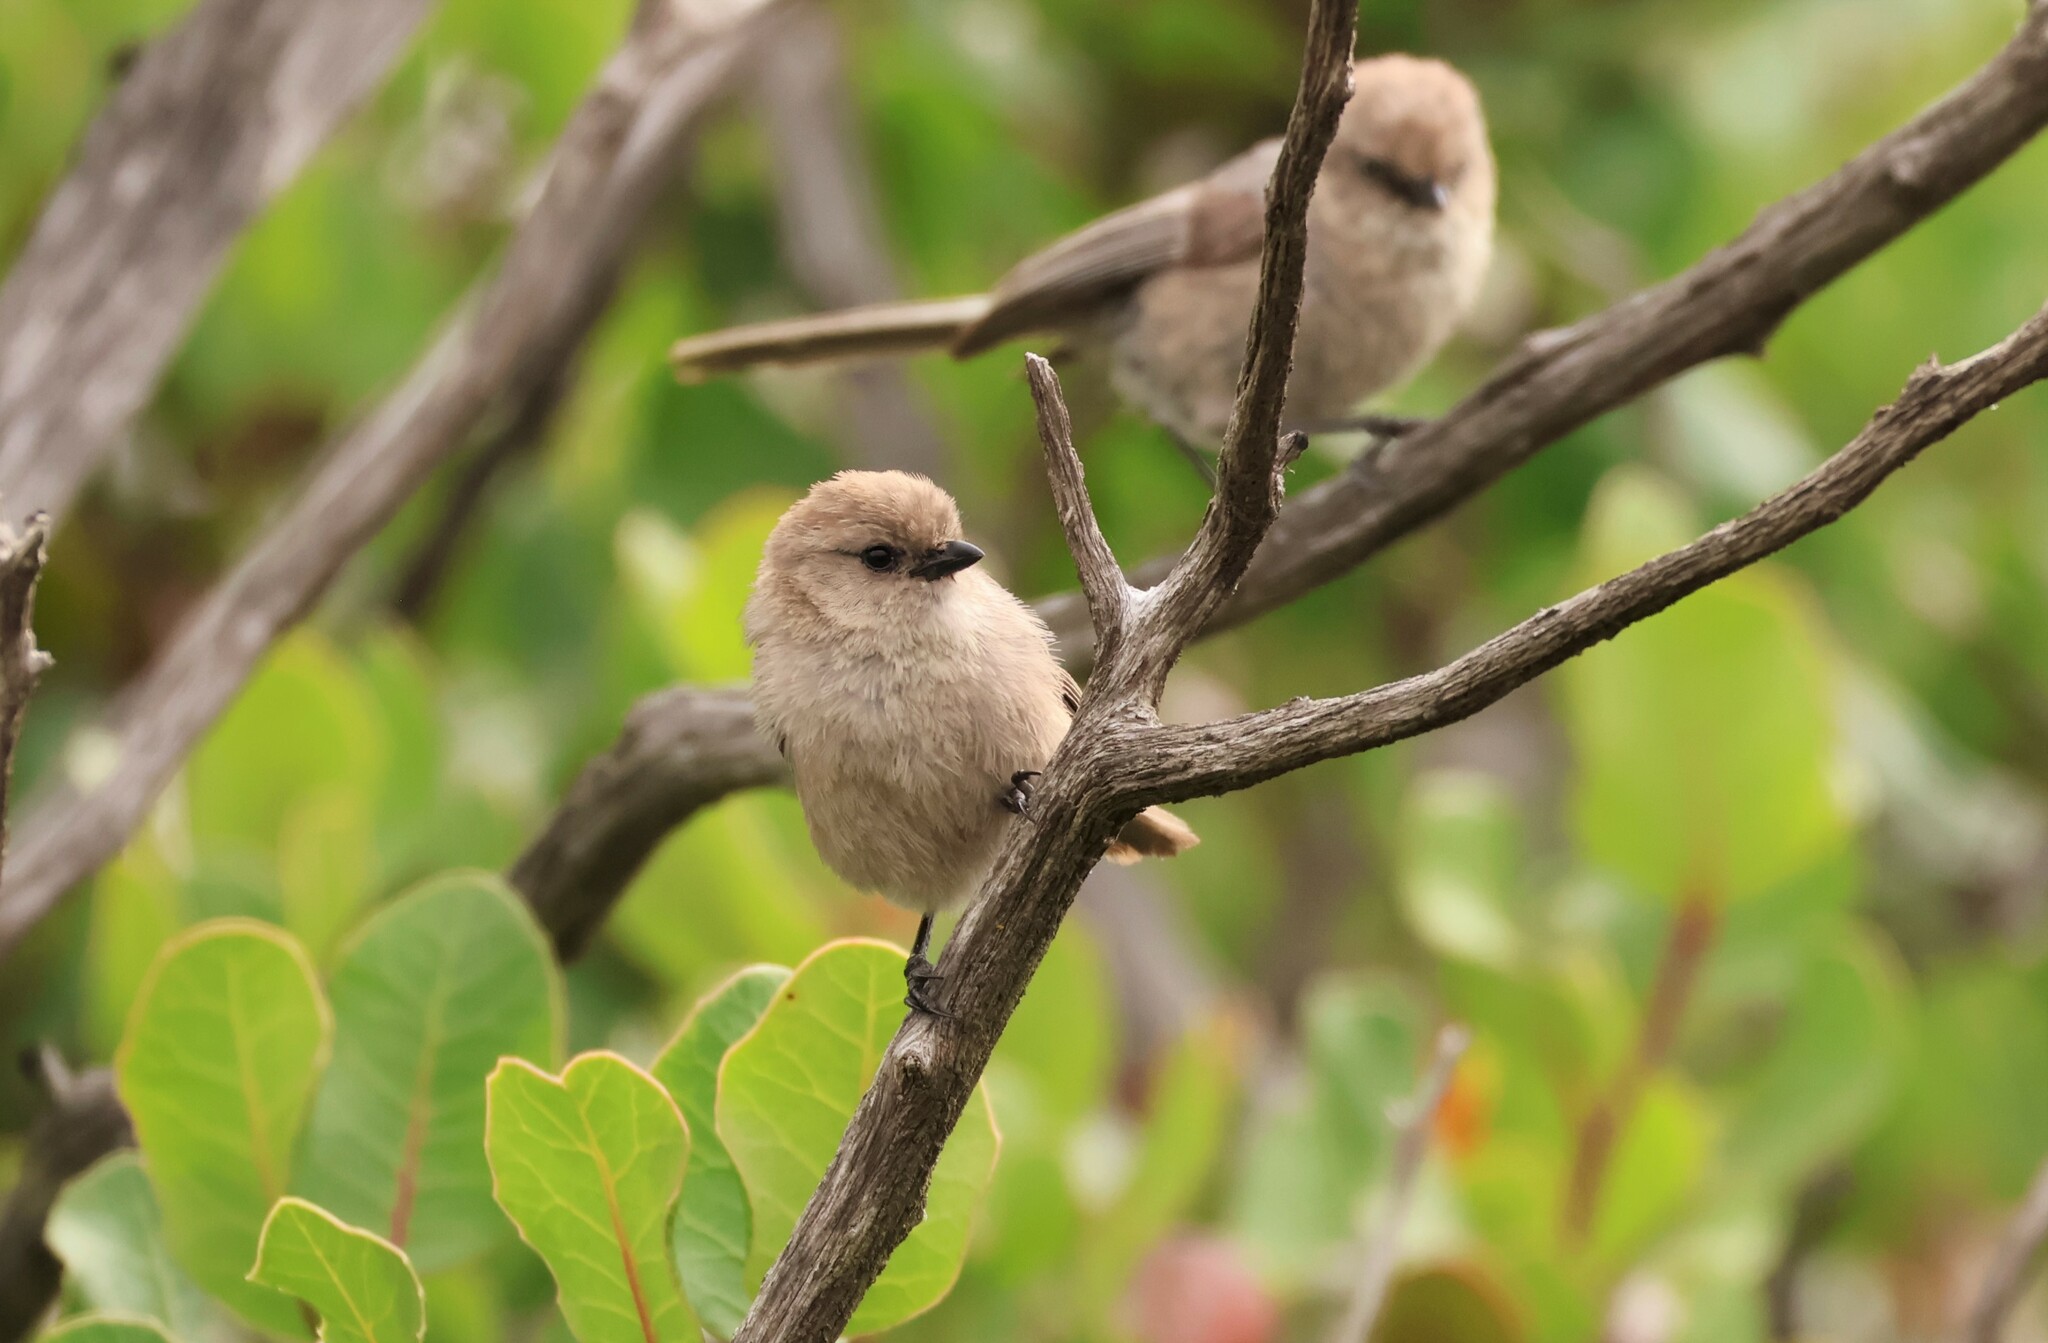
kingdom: Animalia
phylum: Chordata
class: Aves
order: Passeriformes
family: Aegithalidae
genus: Psaltriparus
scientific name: Psaltriparus minimus
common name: American bushtit
